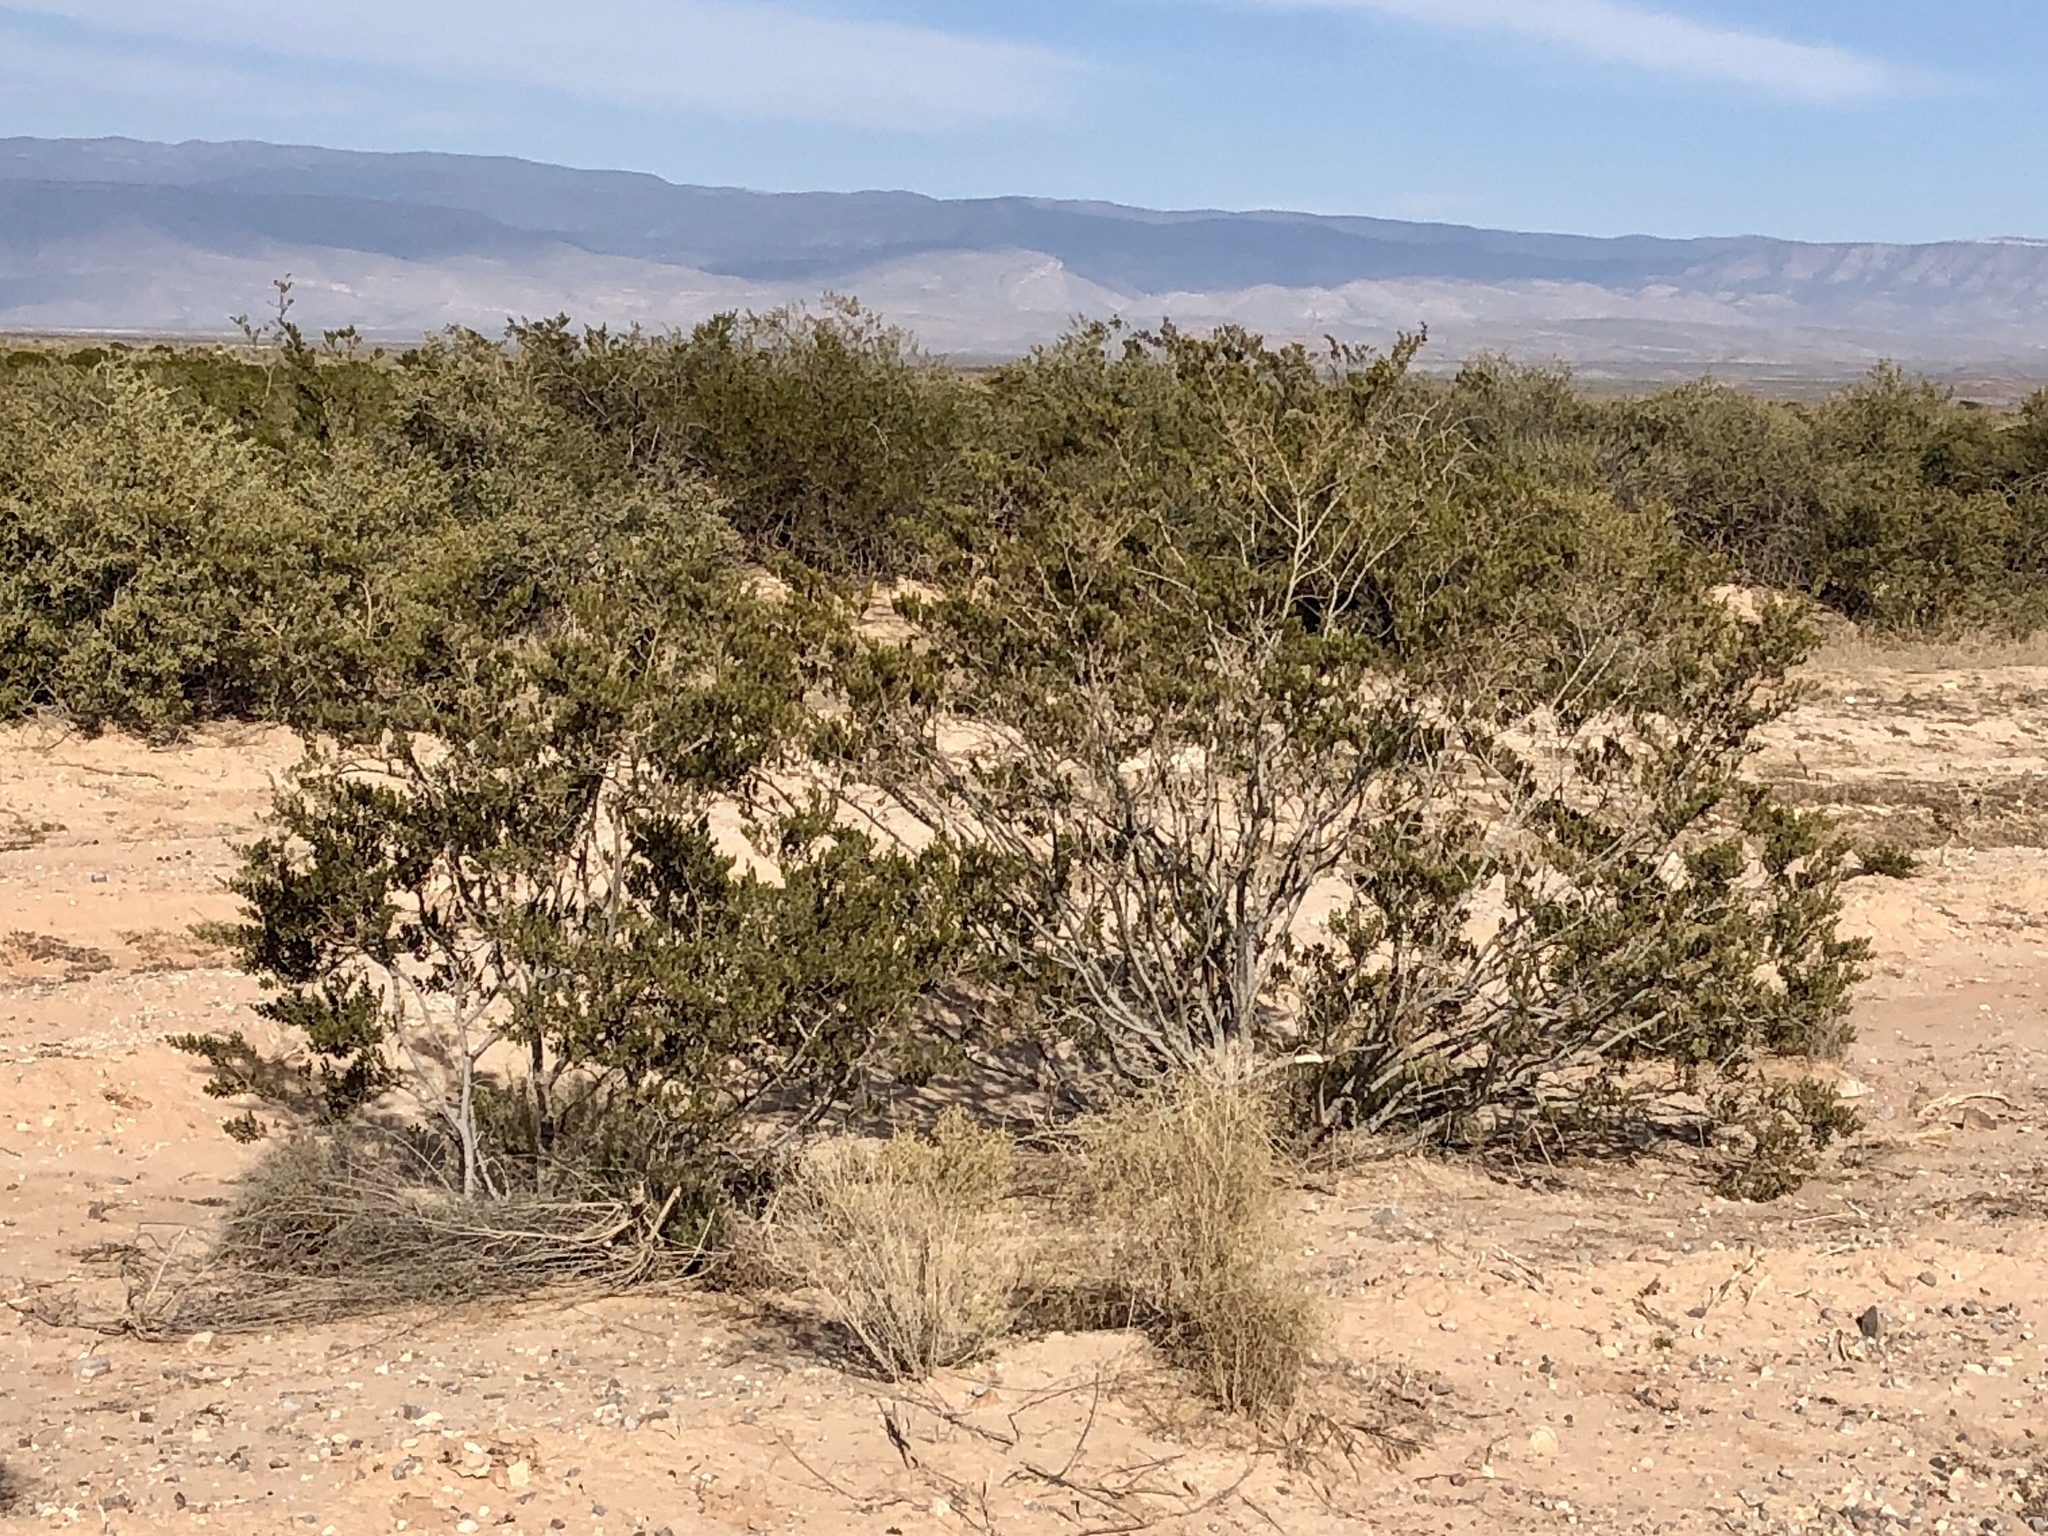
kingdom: Plantae
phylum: Tracheophyta
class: Magnoliopsida
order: Zygophyllales
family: Zygophyllaceae
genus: Larrea
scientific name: Larrea tridentata
